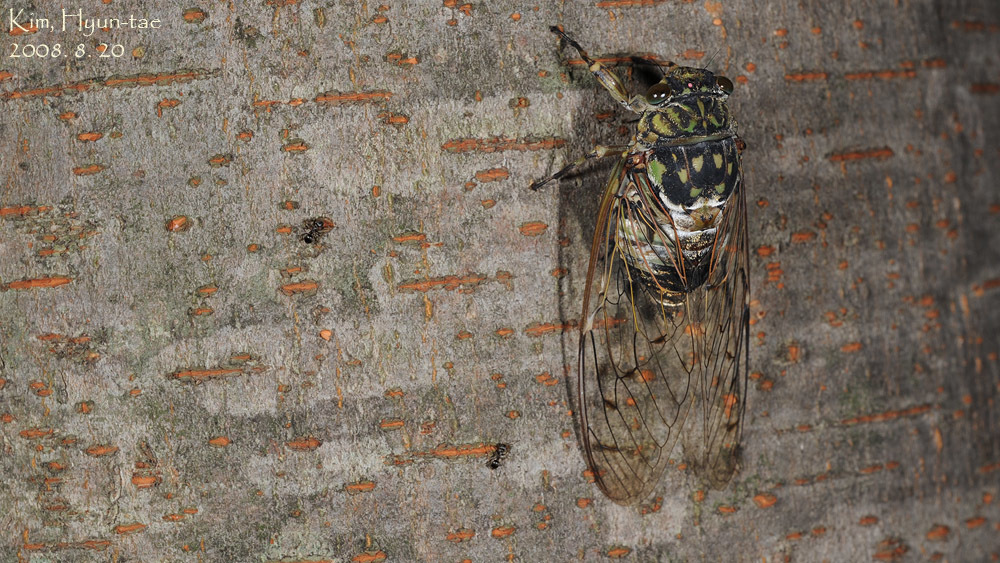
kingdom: Animalia
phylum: Arthropoda
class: Insecta
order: Hemiptera
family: Cicadidae
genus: Hyalessa
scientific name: Hyalessa maculaticollis
